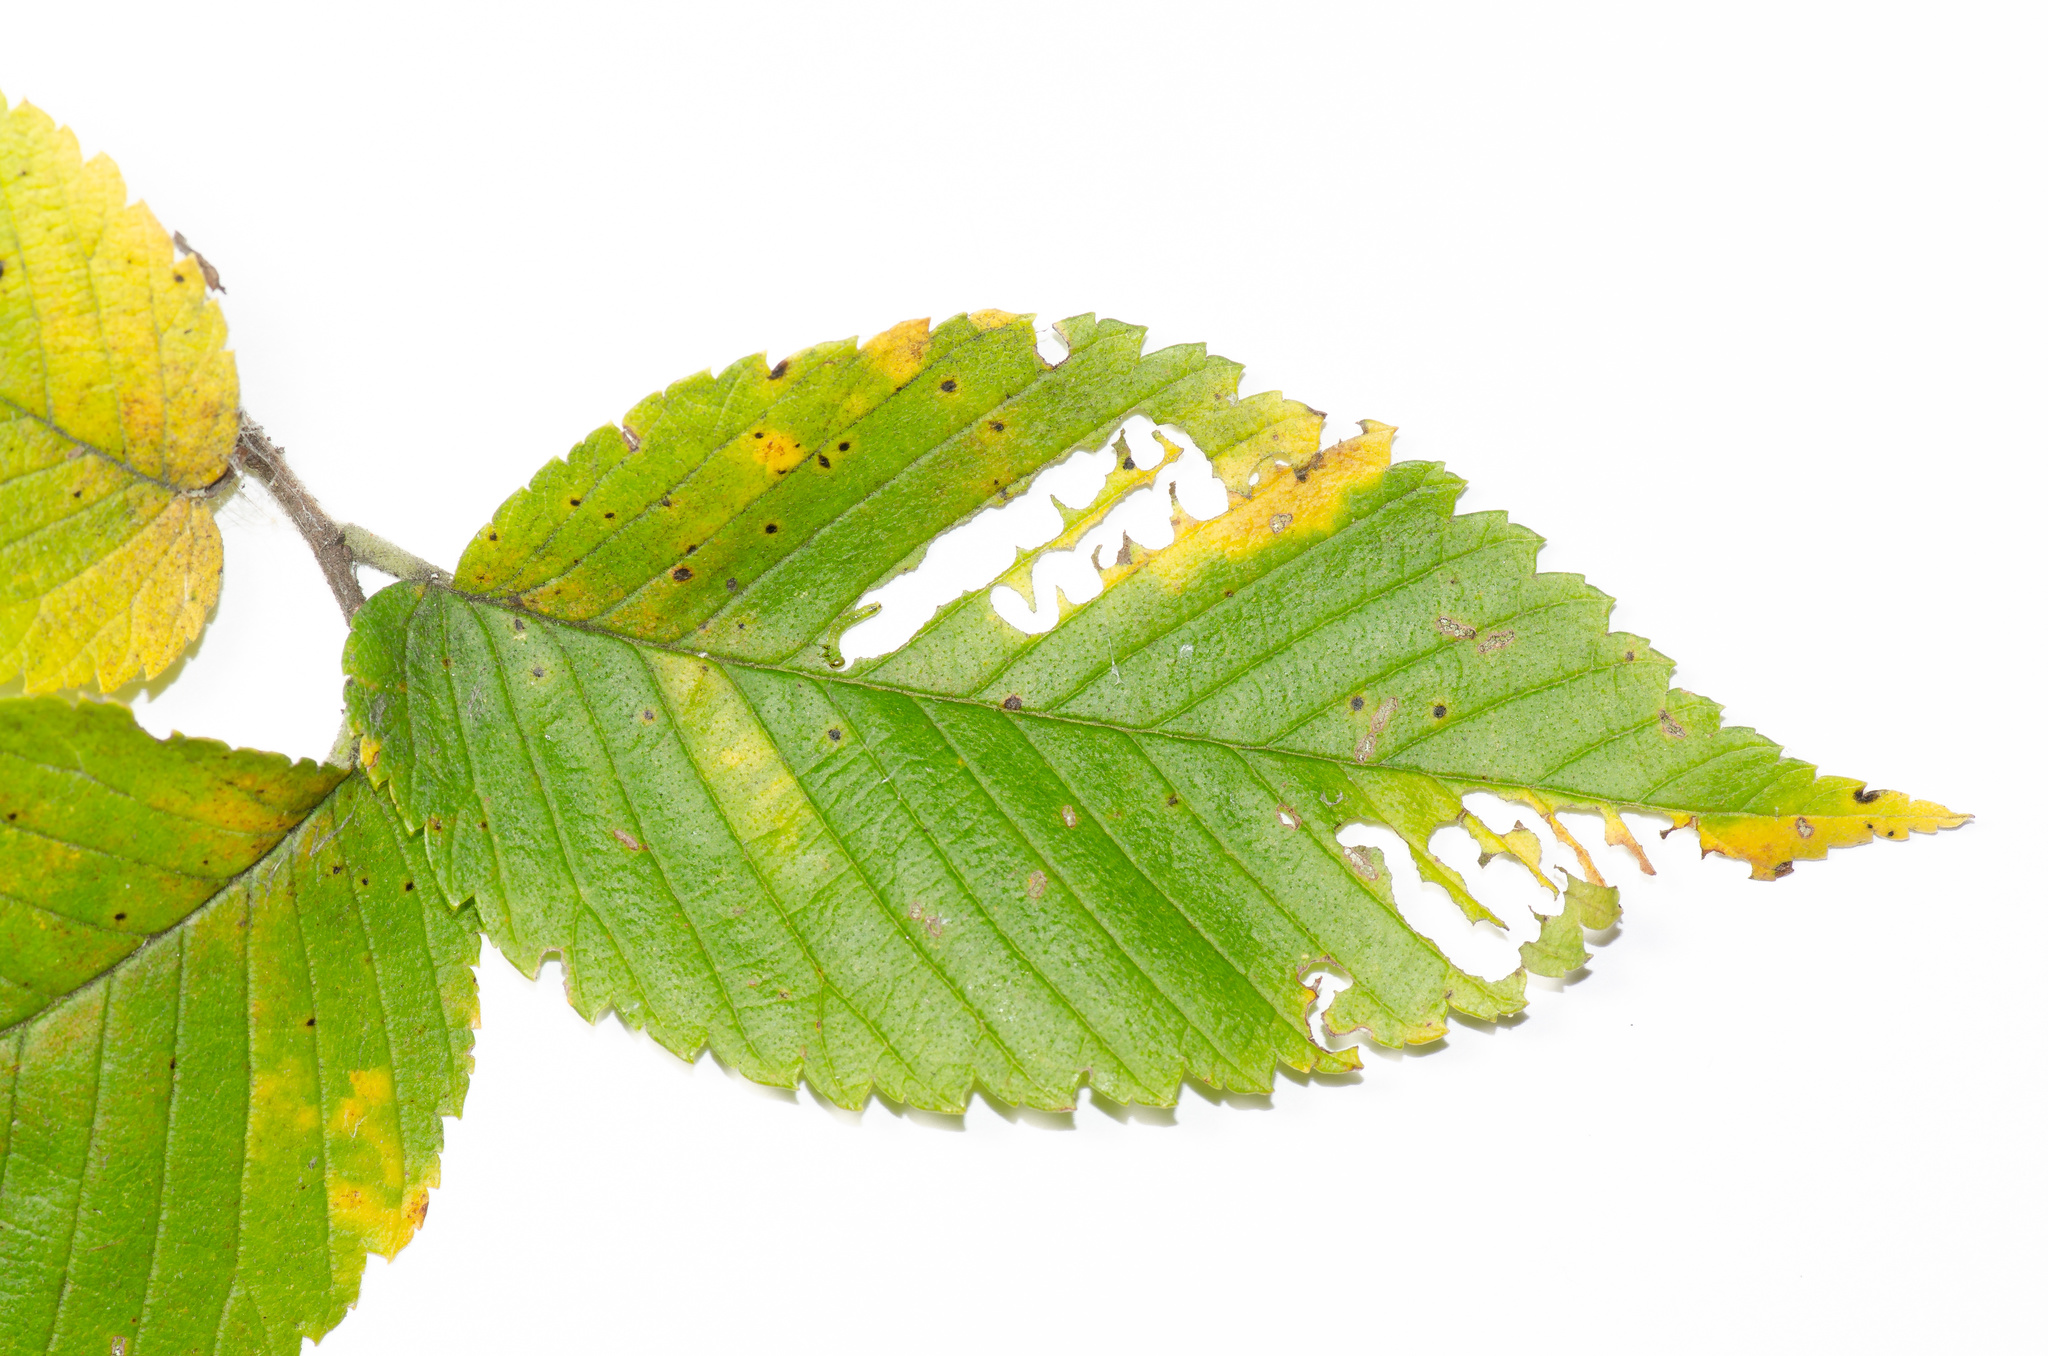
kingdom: Animalia
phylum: Arthropoda
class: Insecta
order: Hymenoptera
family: Argidae
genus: Aproceros
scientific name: Aproceros leucopoda
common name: Zig-zag elm sawfly
